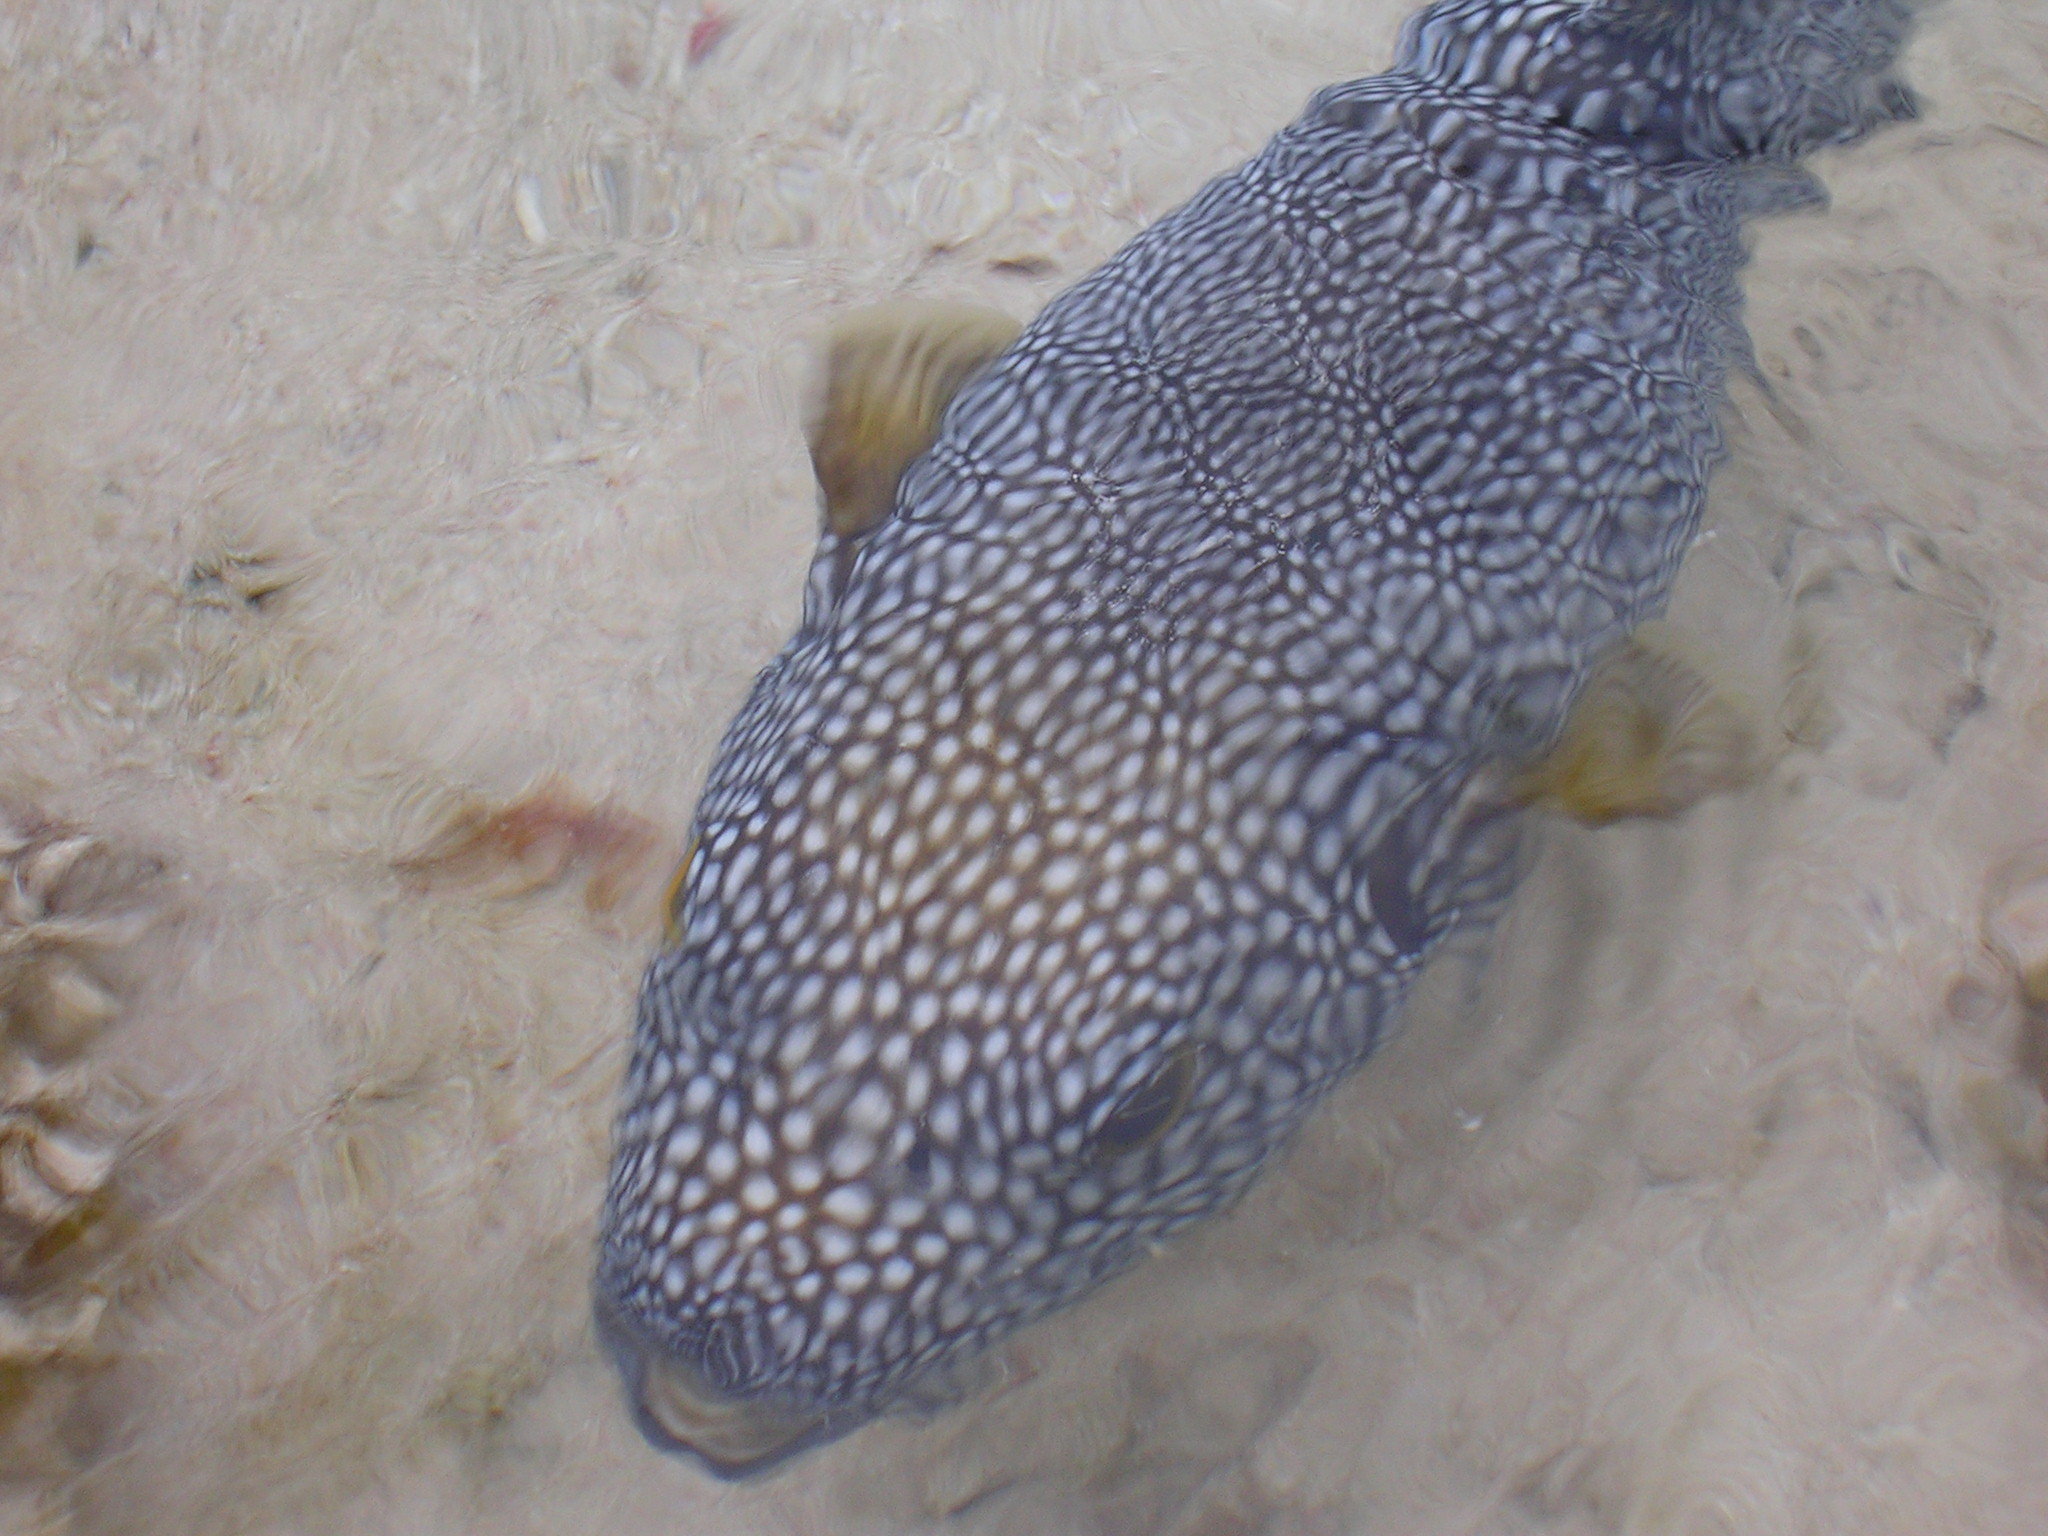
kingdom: Animalia
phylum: Chordata
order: Tetraodontiformes
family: Tetraodontidae
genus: Arothron
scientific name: Arothron meleagris
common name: Guinea-fowl pufferfish
